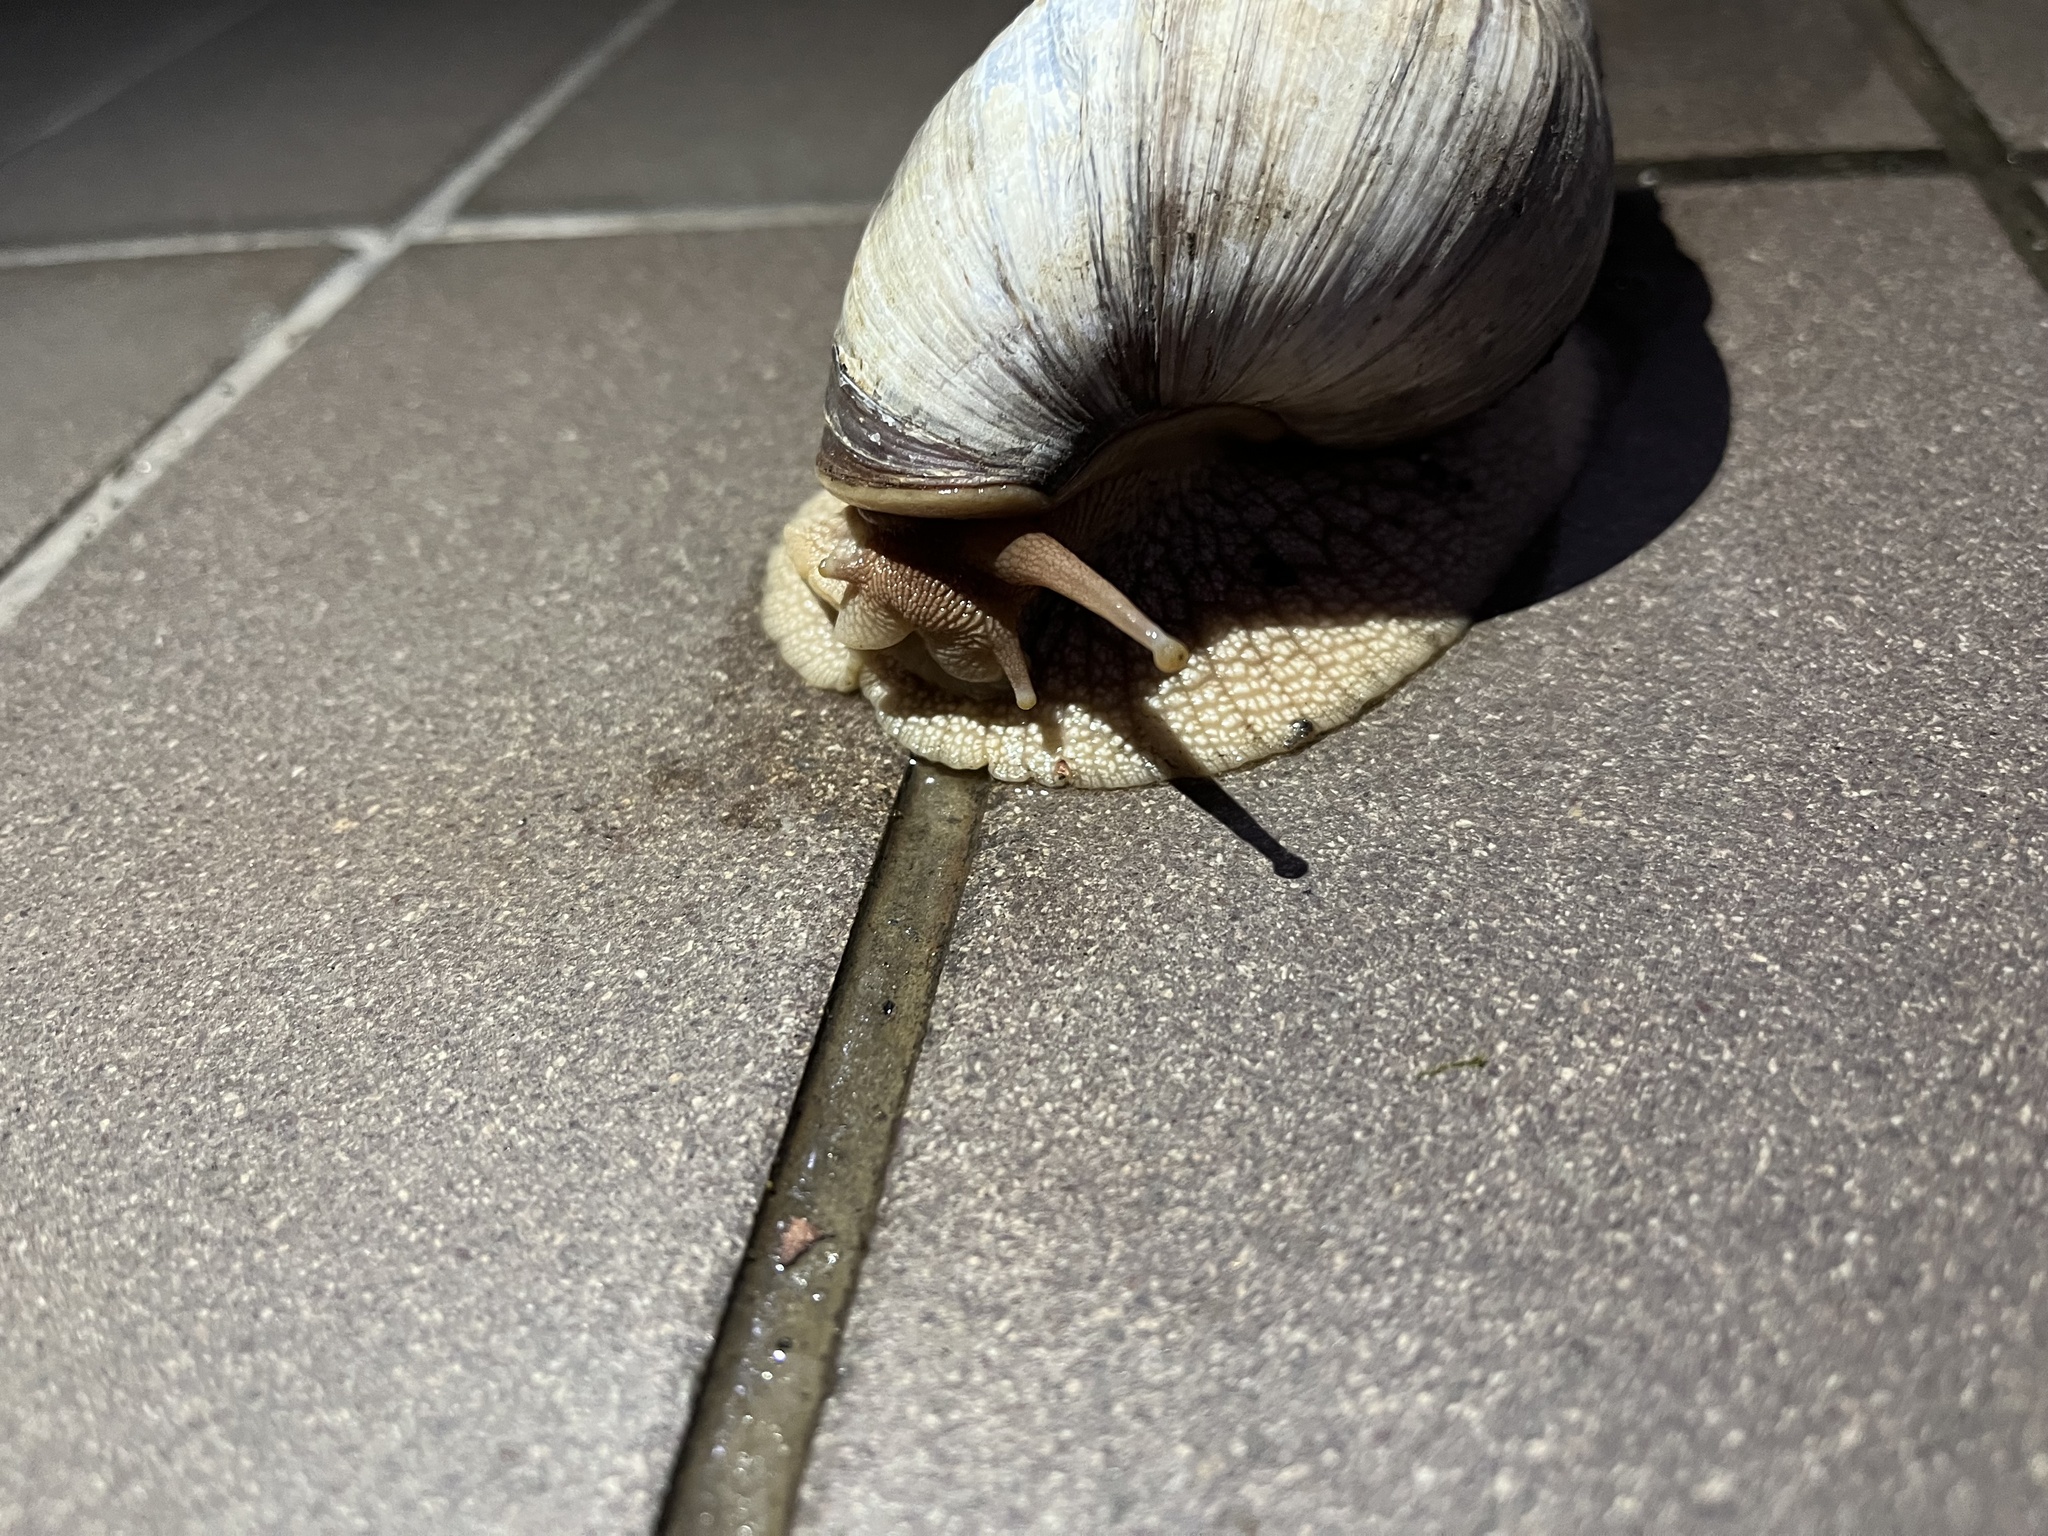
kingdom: Animalia
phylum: Mollusca
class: Gastropoda
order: Stylommatophora
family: Achatinidae
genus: Lissachatina
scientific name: Lissachatina immaculata
